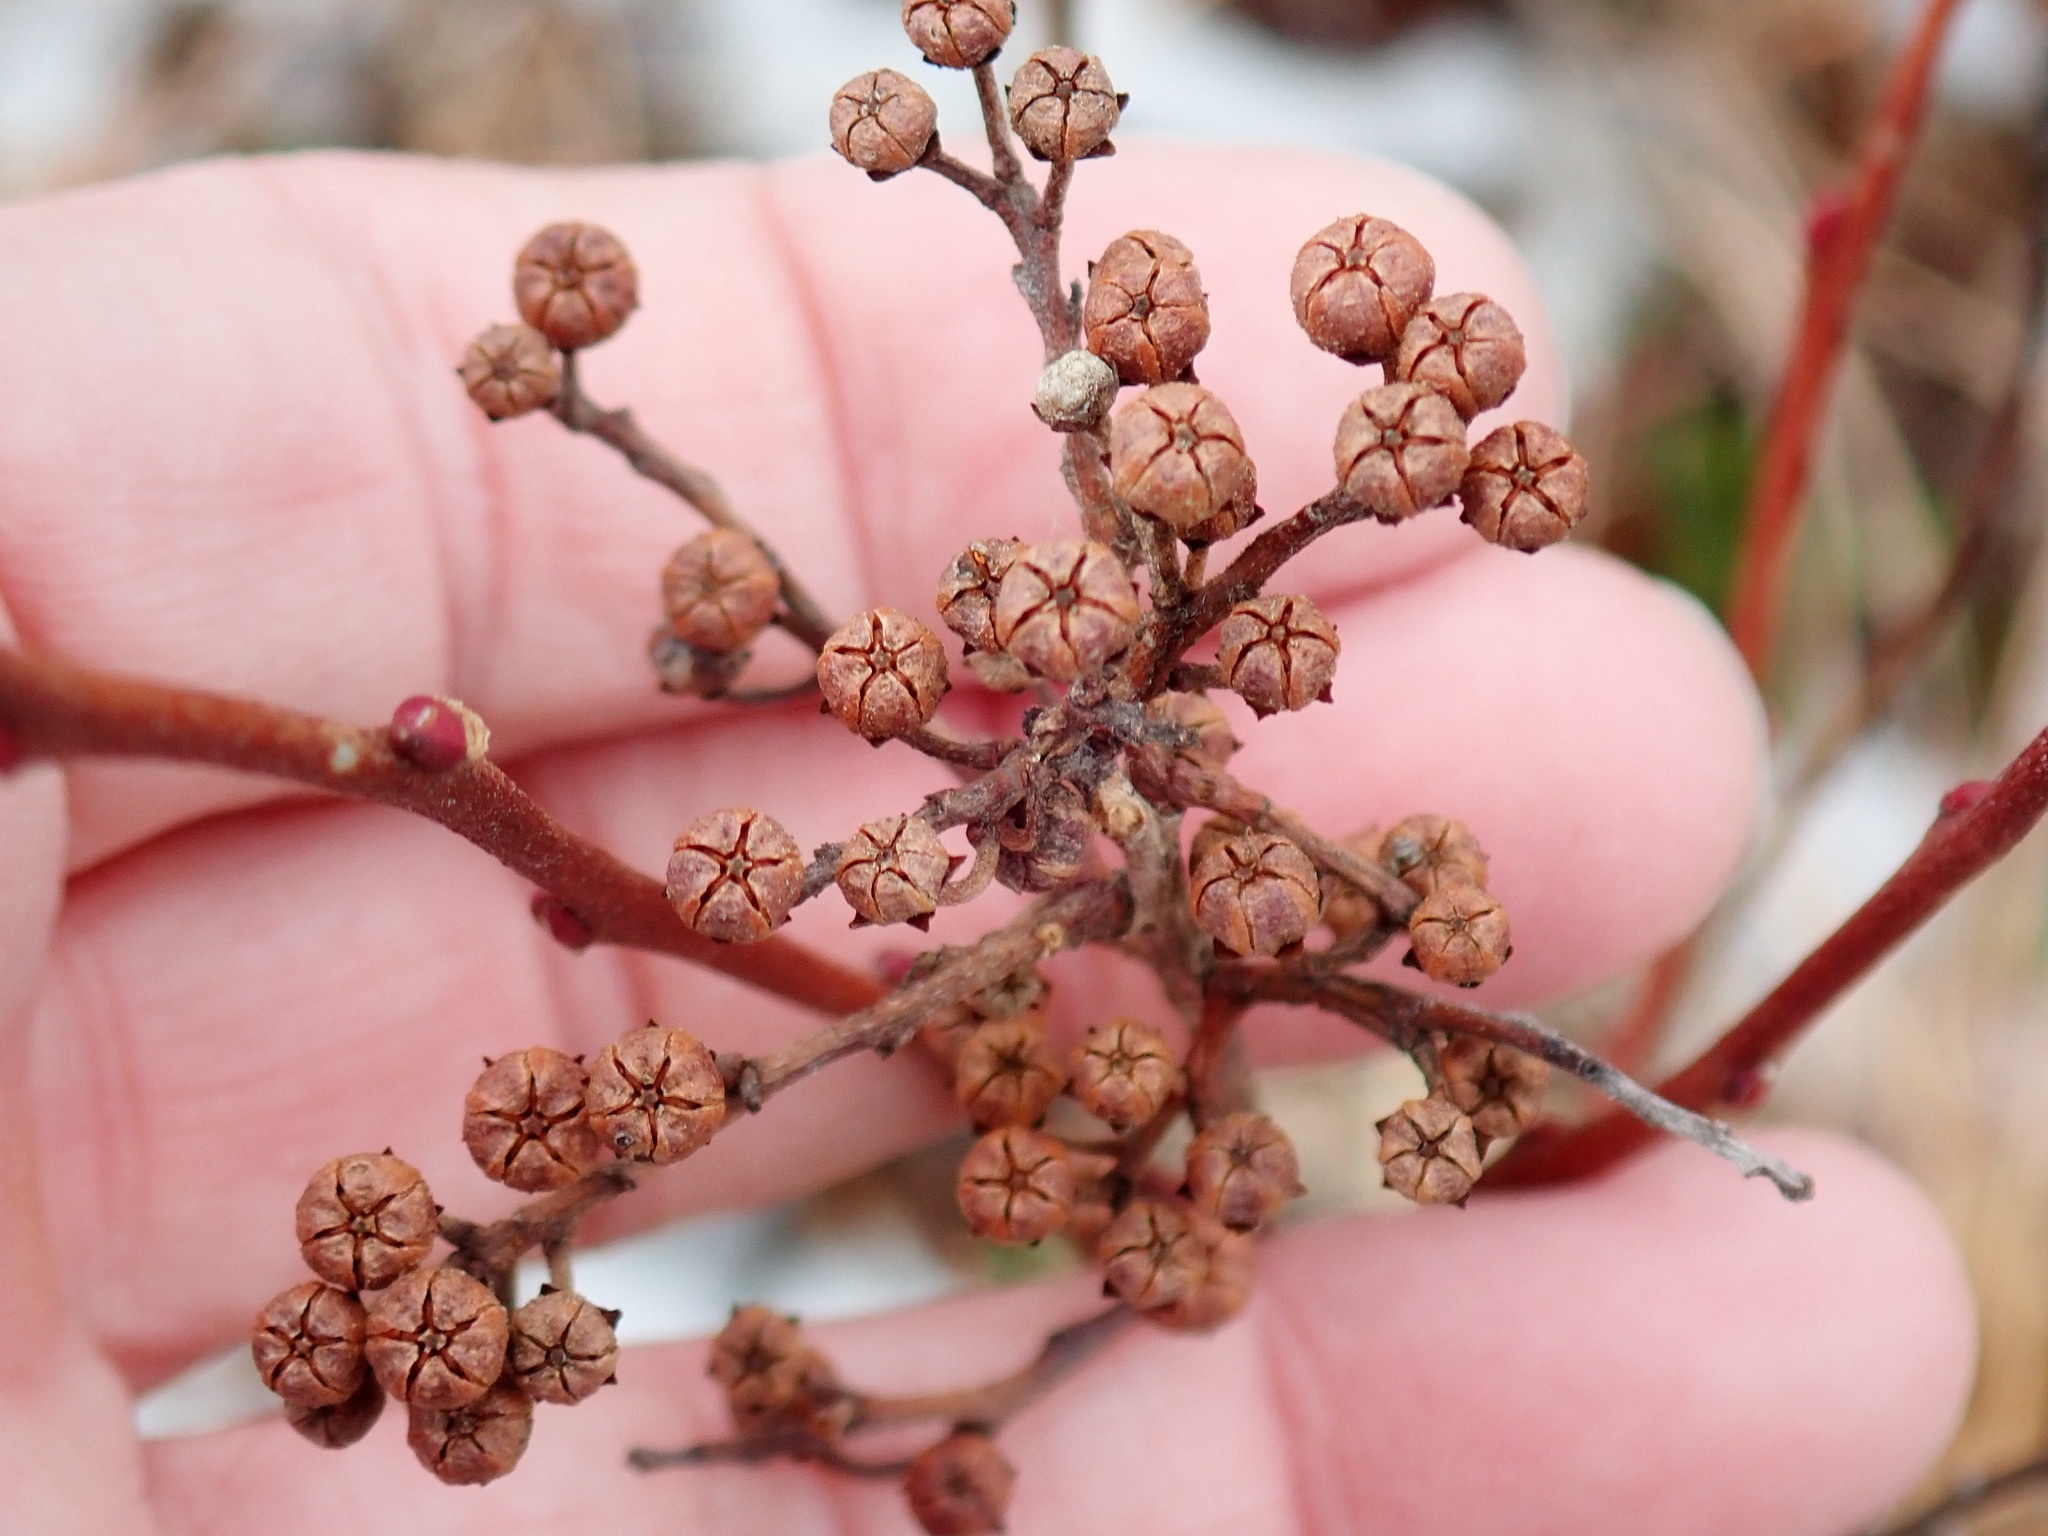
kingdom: Plantae
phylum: Tracheophyta
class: Magnoliopsida
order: Ericales
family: Ericaceae
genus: Lyonia
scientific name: Lyonia ligustrina
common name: Maleberry
